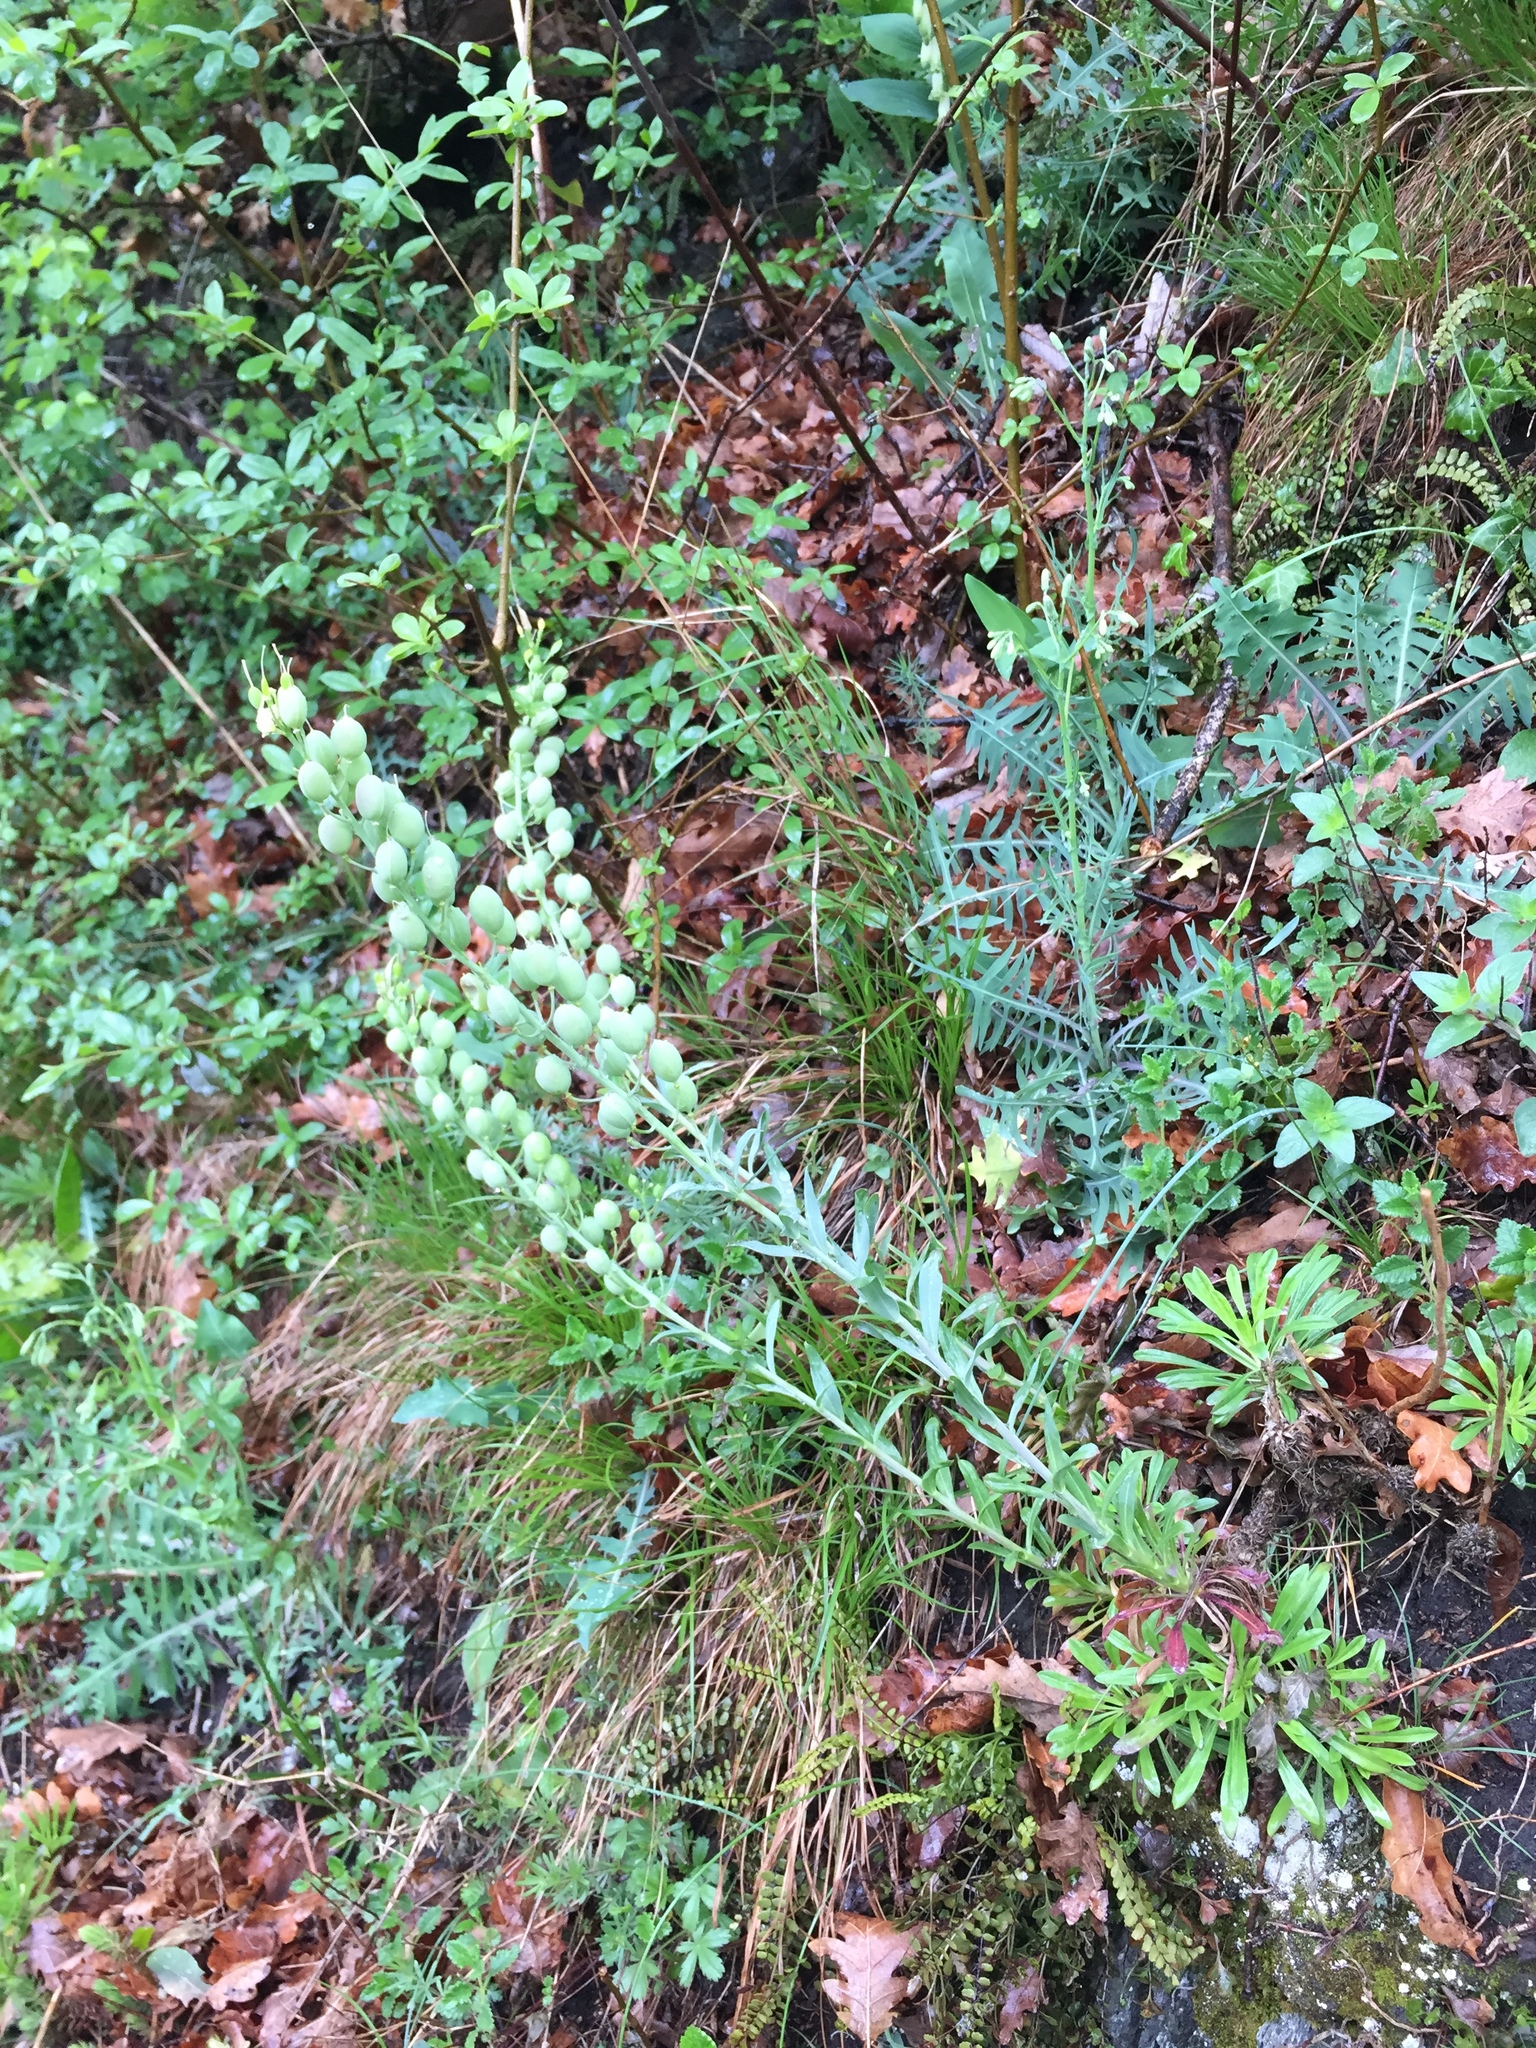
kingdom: Plantae
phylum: Tracheophyta
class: Magnoliopsida
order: Brassicales
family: Brassicaceae
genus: Alyssoides
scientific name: Alyssoides utriculata
